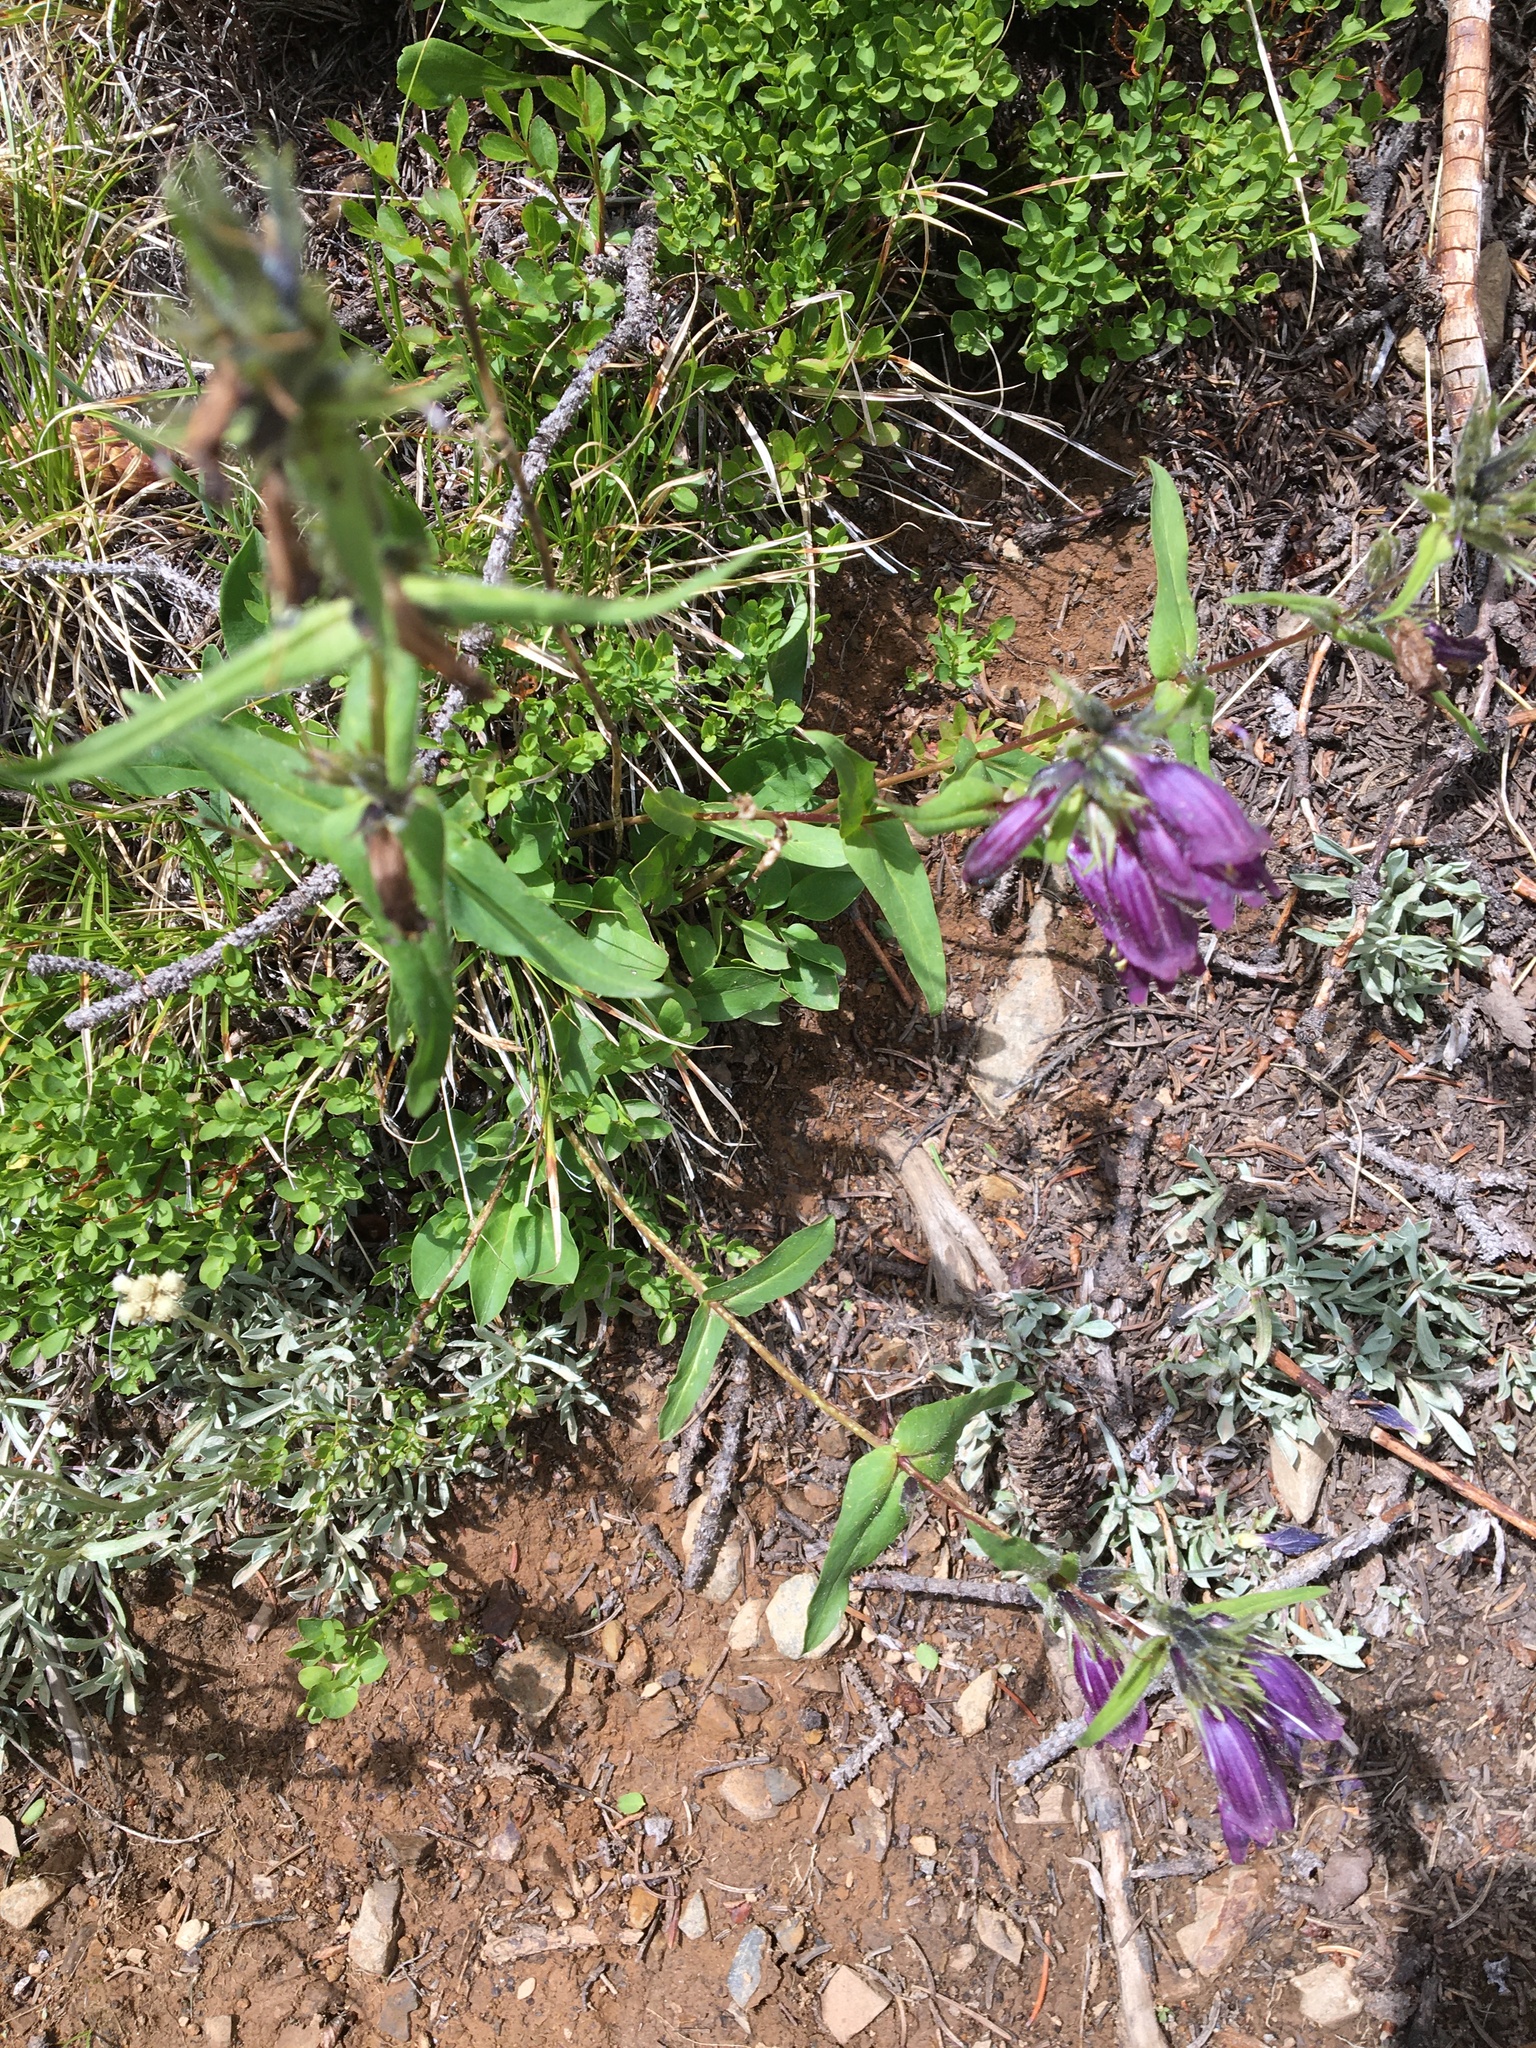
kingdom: Plantae
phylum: Tracheophyta
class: Magnoliopsida
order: Lamiales
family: Plantaginaceae
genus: Penstemon
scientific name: Penstemon whippleanus
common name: Whipple's penstemon
